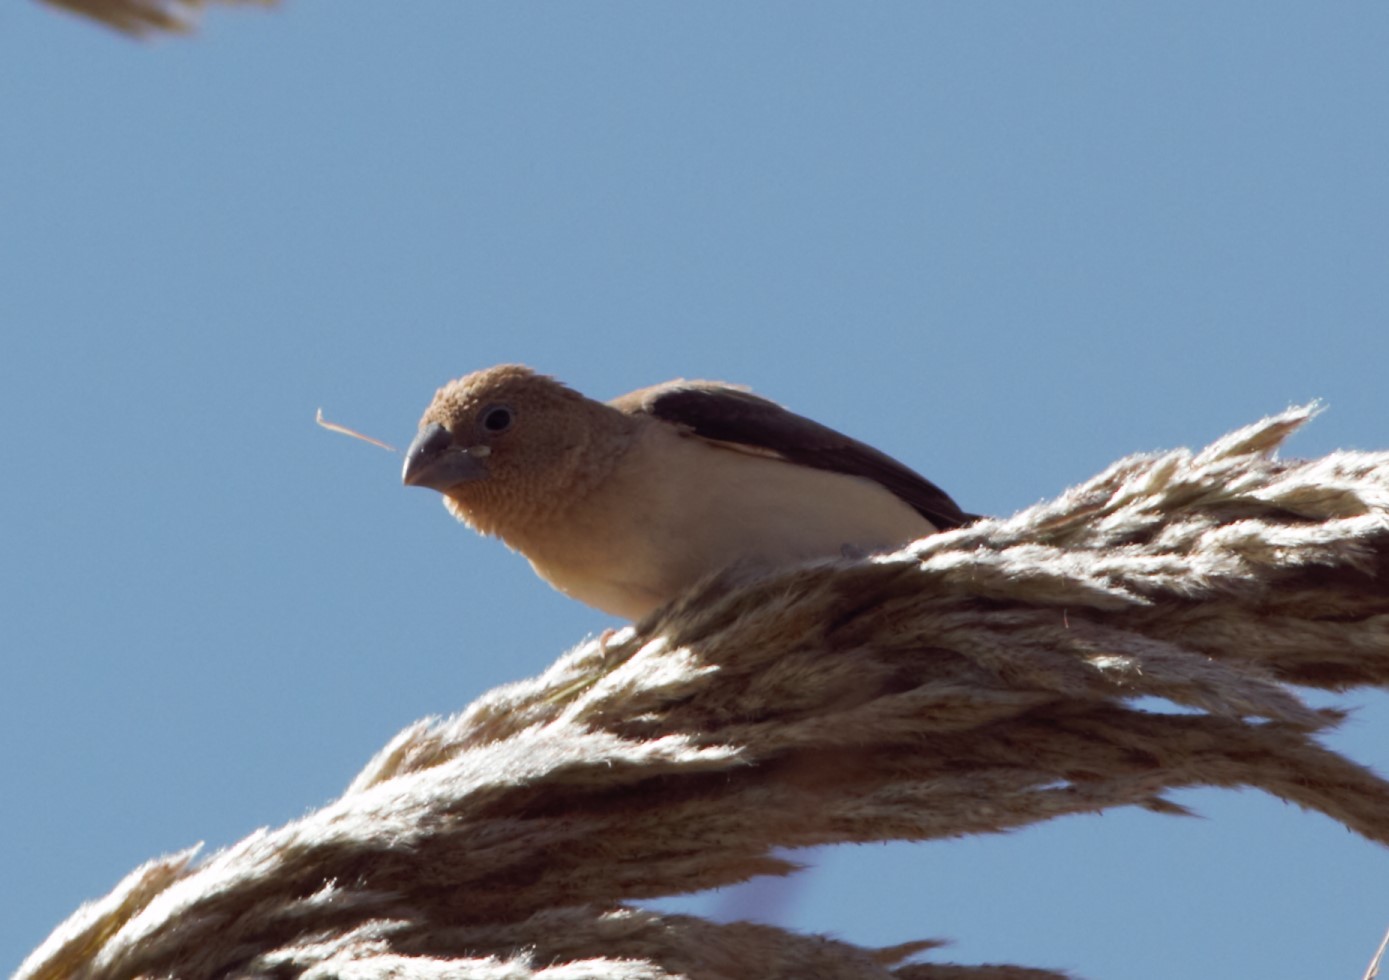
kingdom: Animalia
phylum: Chordata
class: Aves
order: Passeriformes
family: Estrildidae
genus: Euodice
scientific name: Euodice cantans
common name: African silverbill
